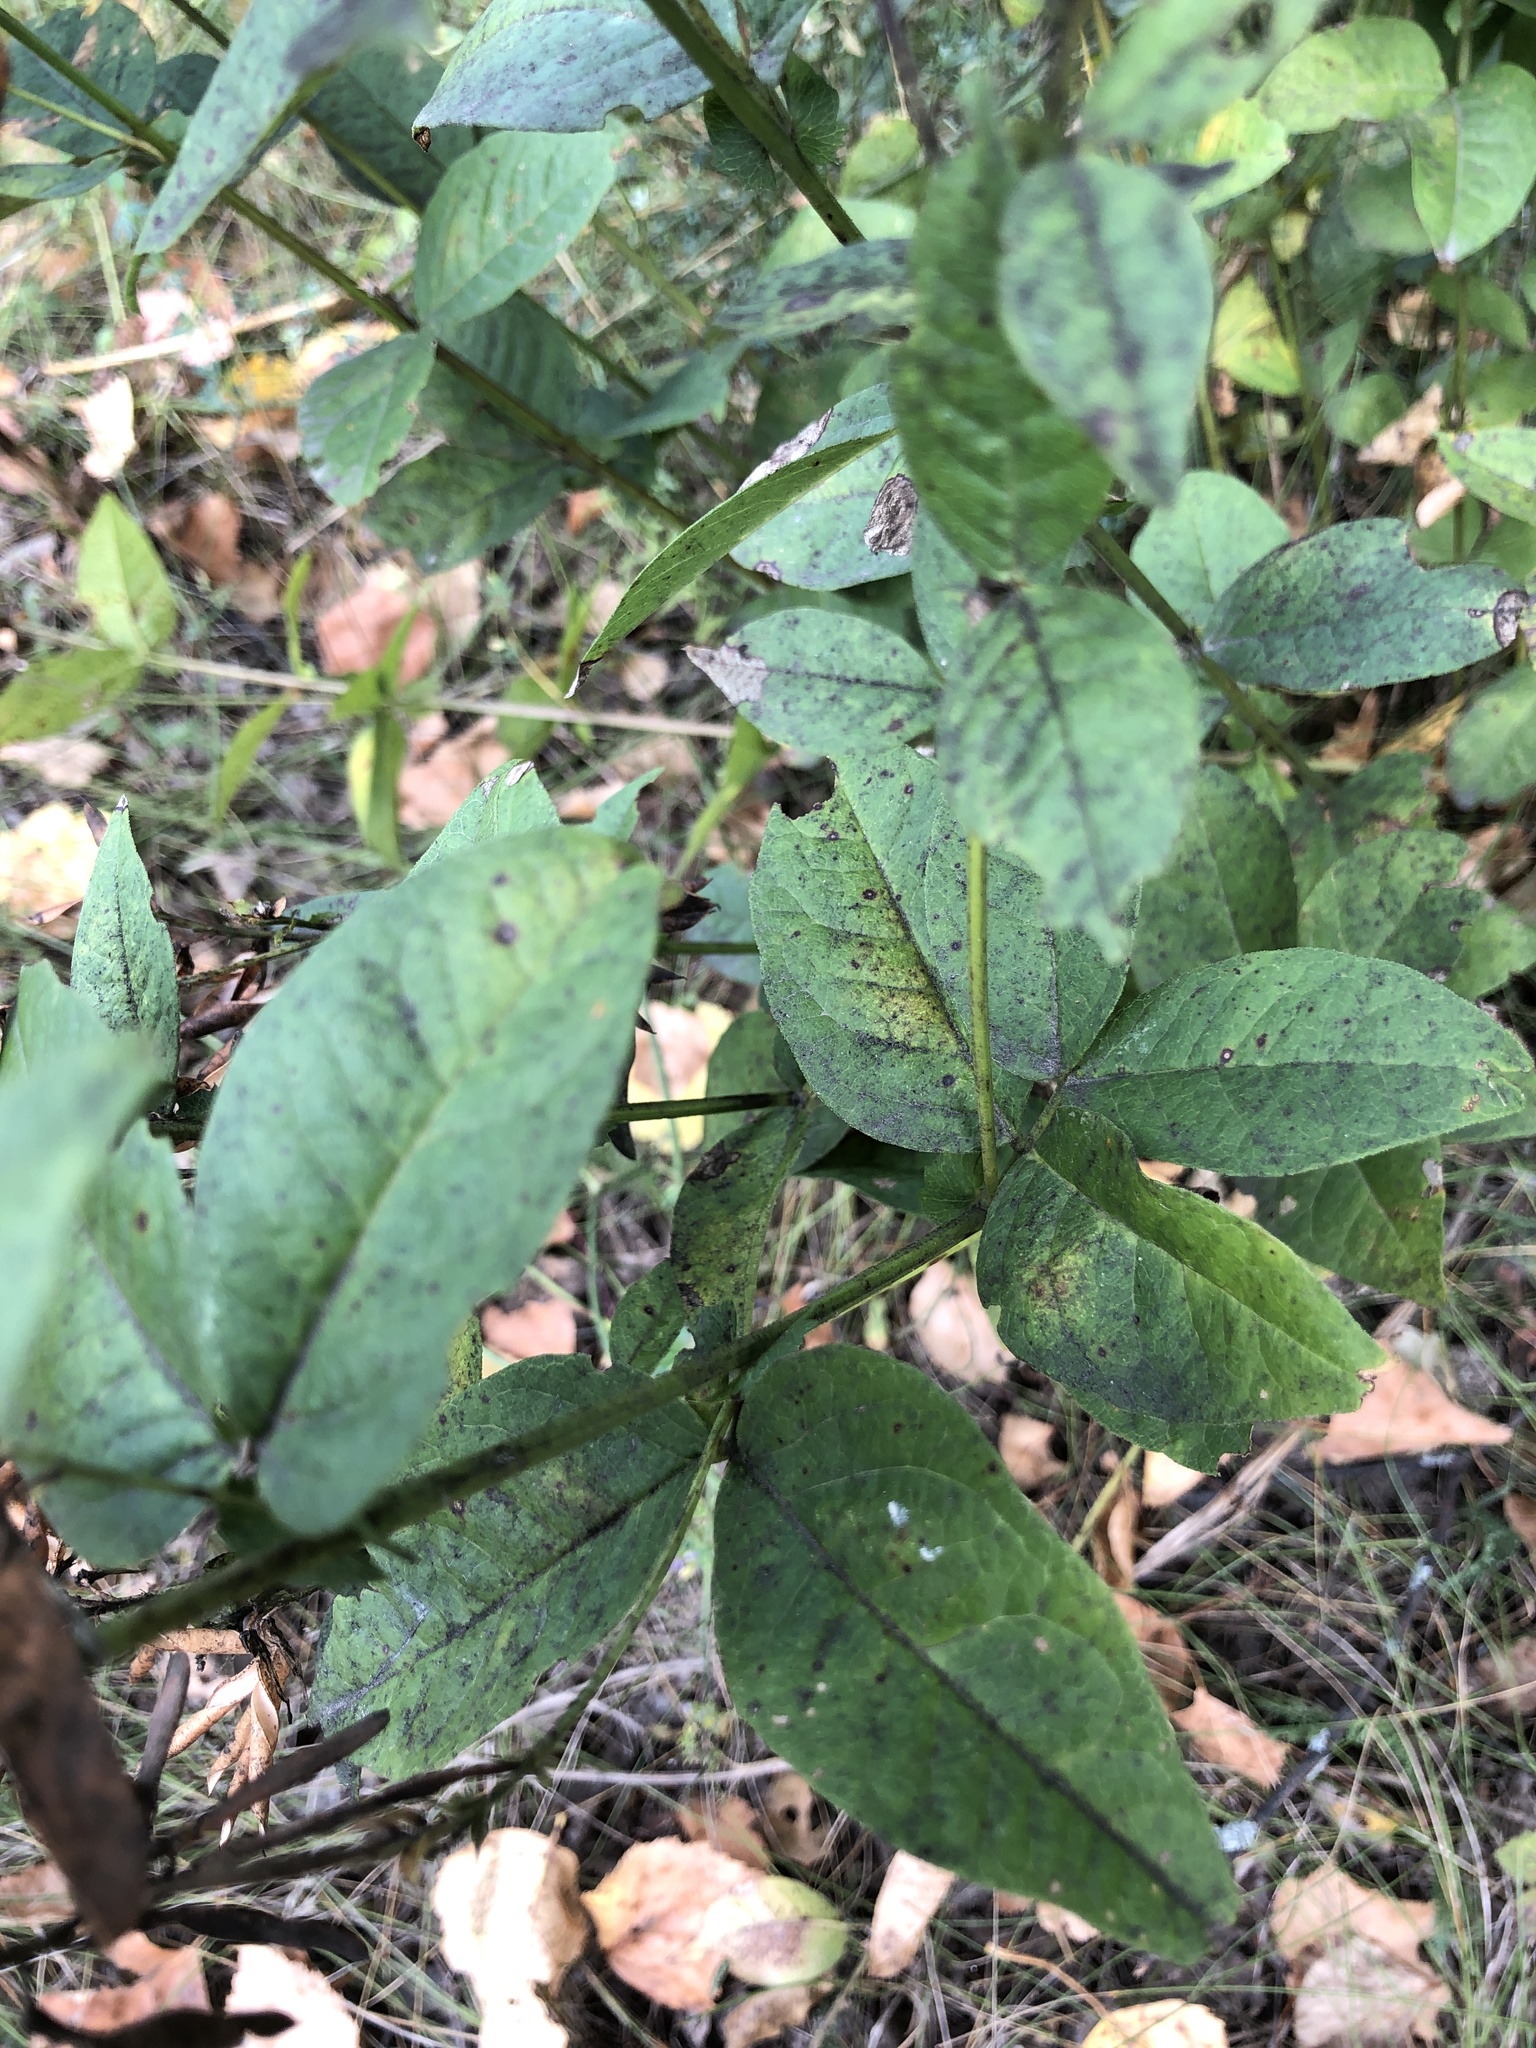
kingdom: Plantae
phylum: Tracheophyta
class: Magnoliopsida
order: Fabales
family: Fabaceae
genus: Vicia
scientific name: Vicia unijuga
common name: Two-leaf vetch
